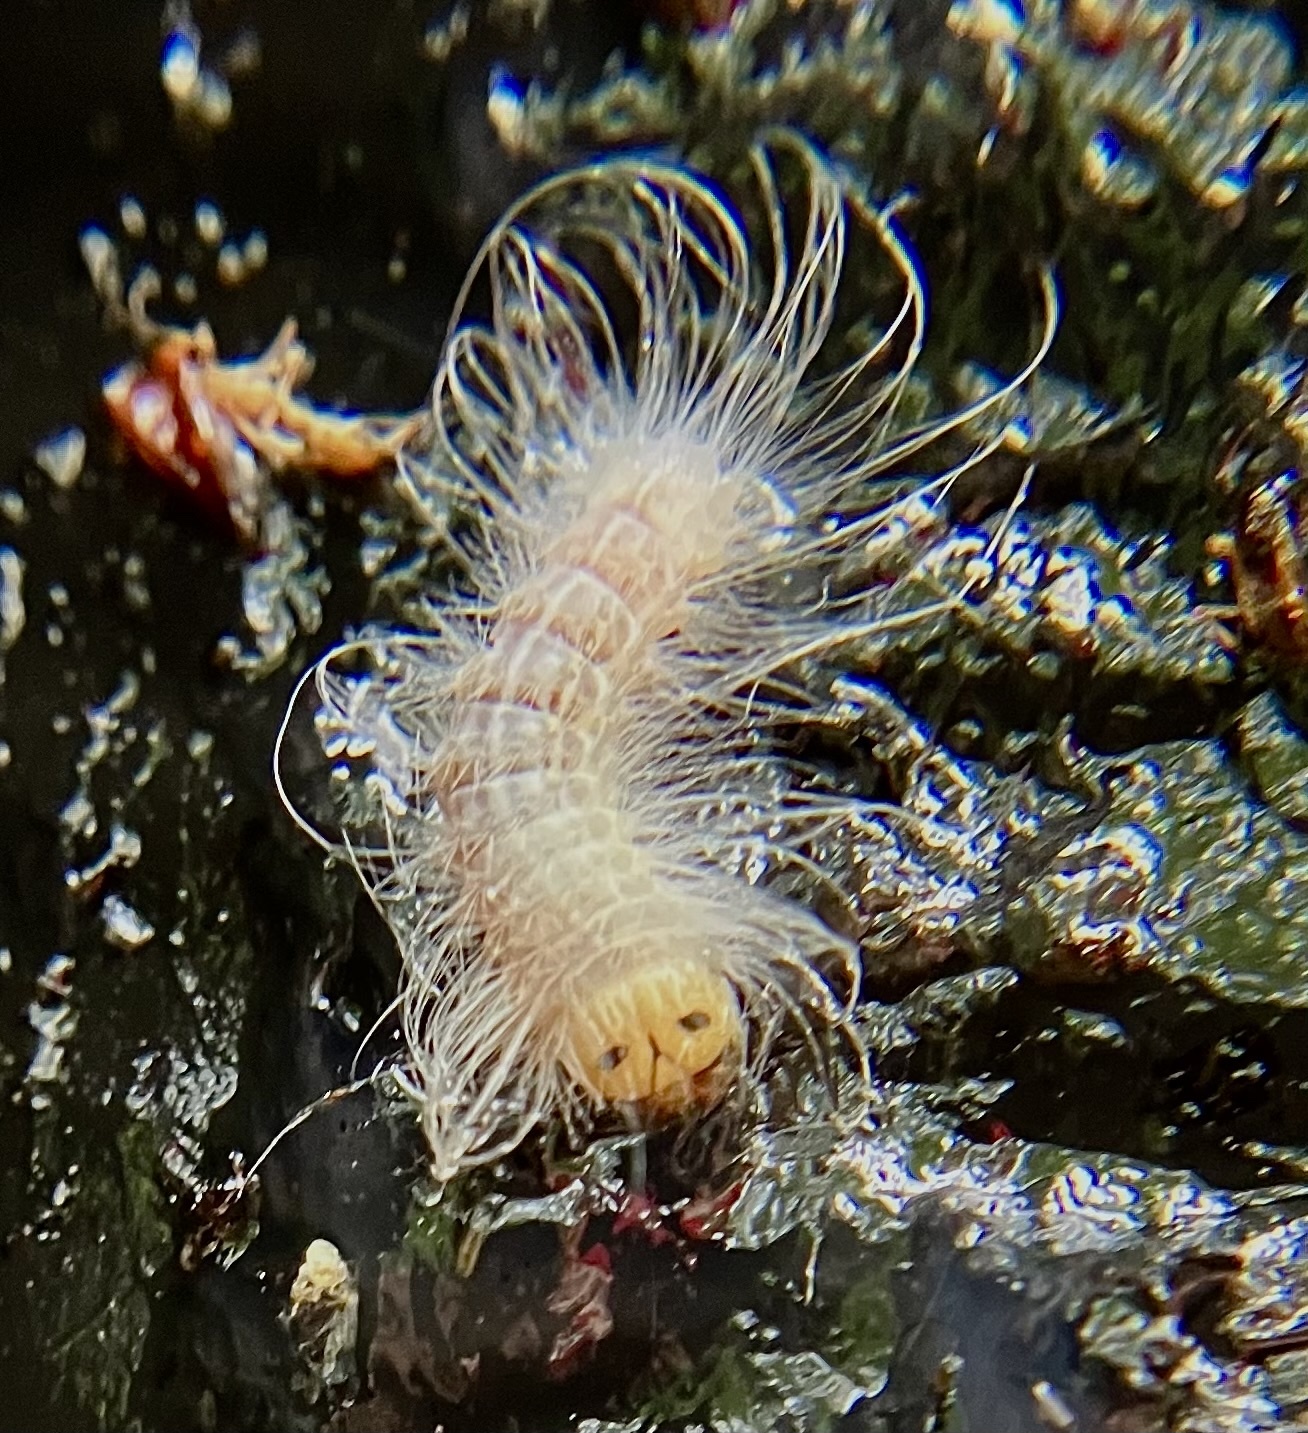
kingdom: Animalia
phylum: Arthropoda
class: Insecta
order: Lepidoptera
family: Noctuidae
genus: Charadra
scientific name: Charadra deridens
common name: Marbled tuffet
